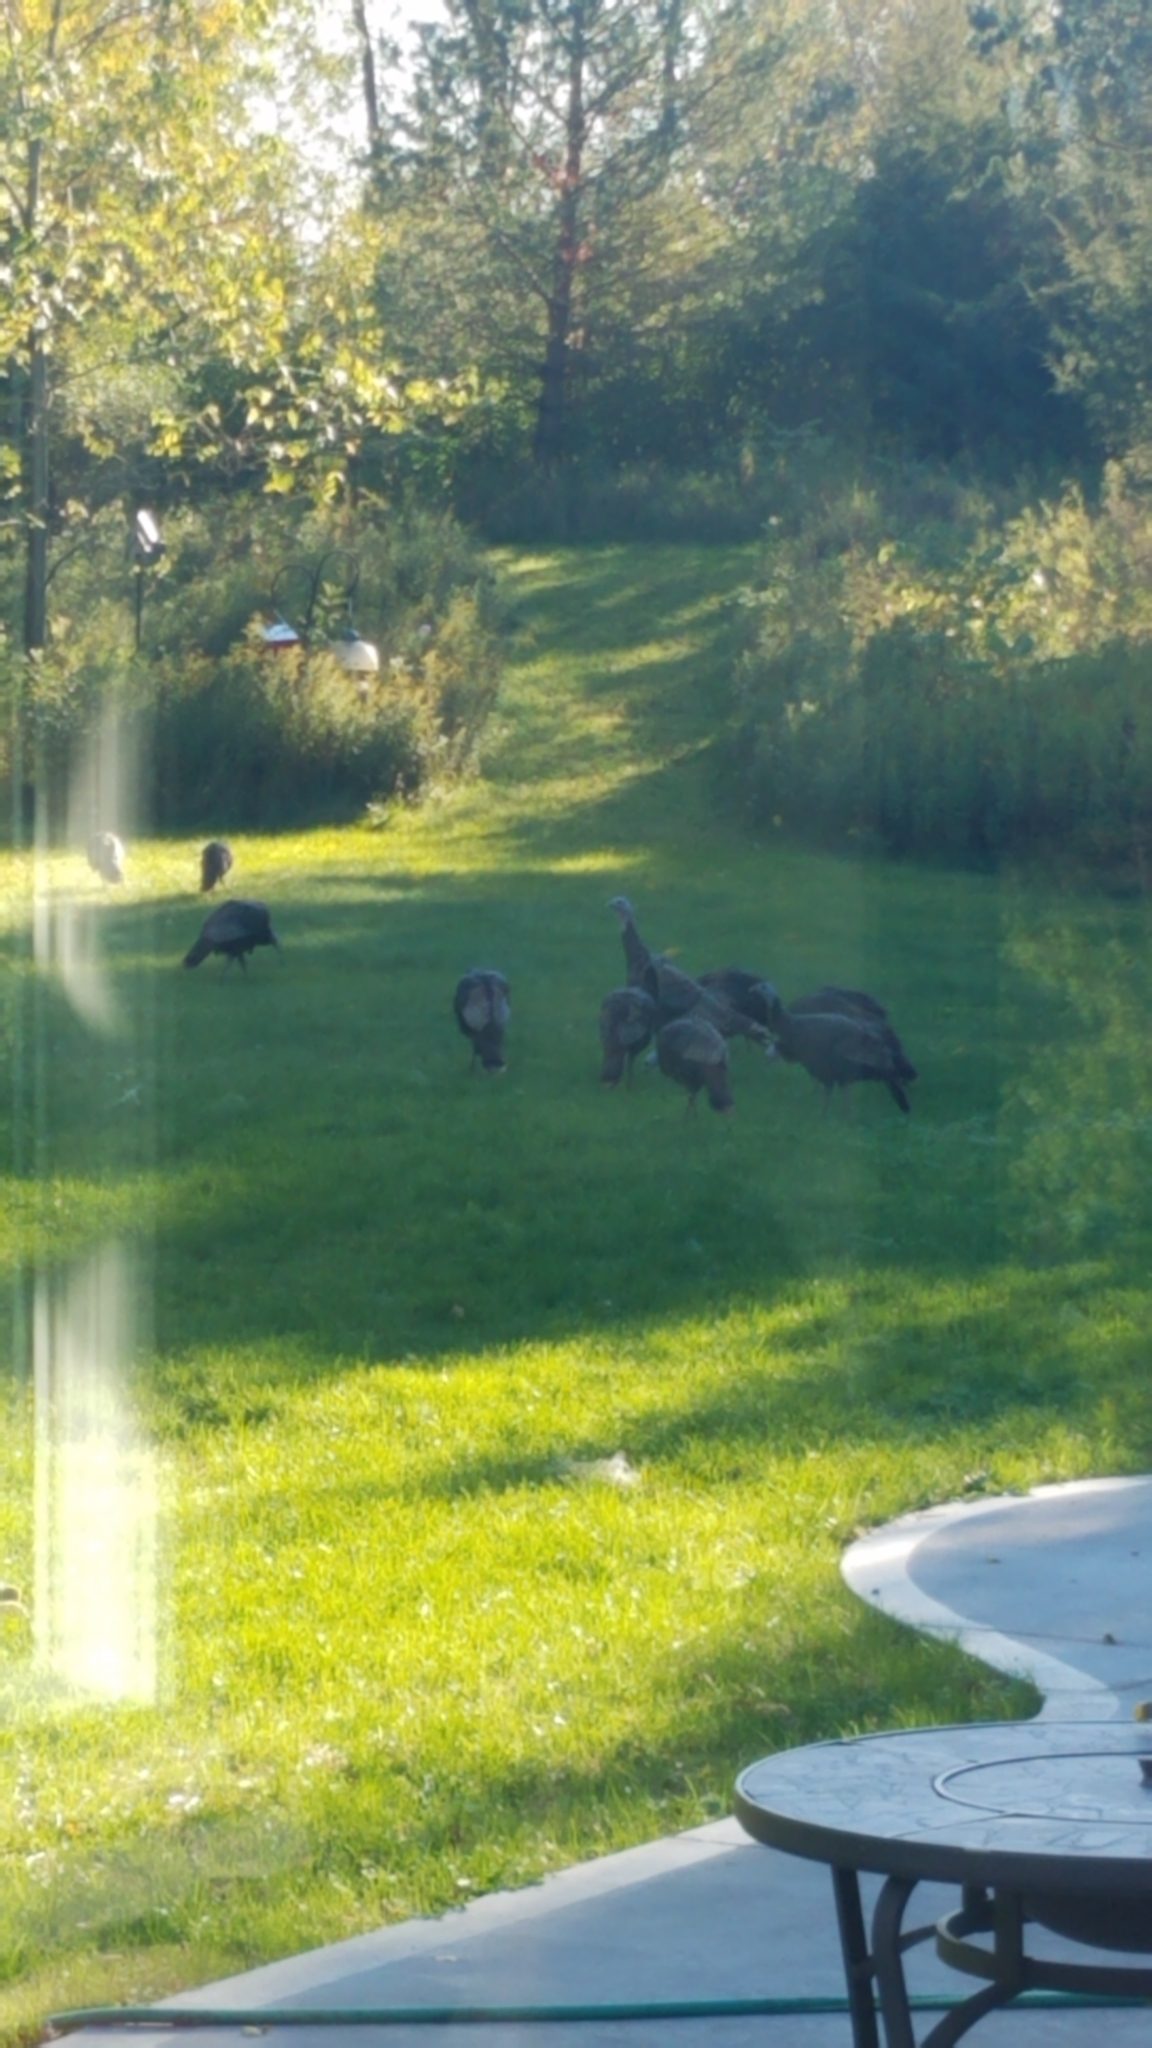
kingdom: Animalia
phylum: Chordata
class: Aves
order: Galliformes
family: Phasianidae
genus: Meleagris
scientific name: Meleagris gallopavo
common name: Wild turkey
